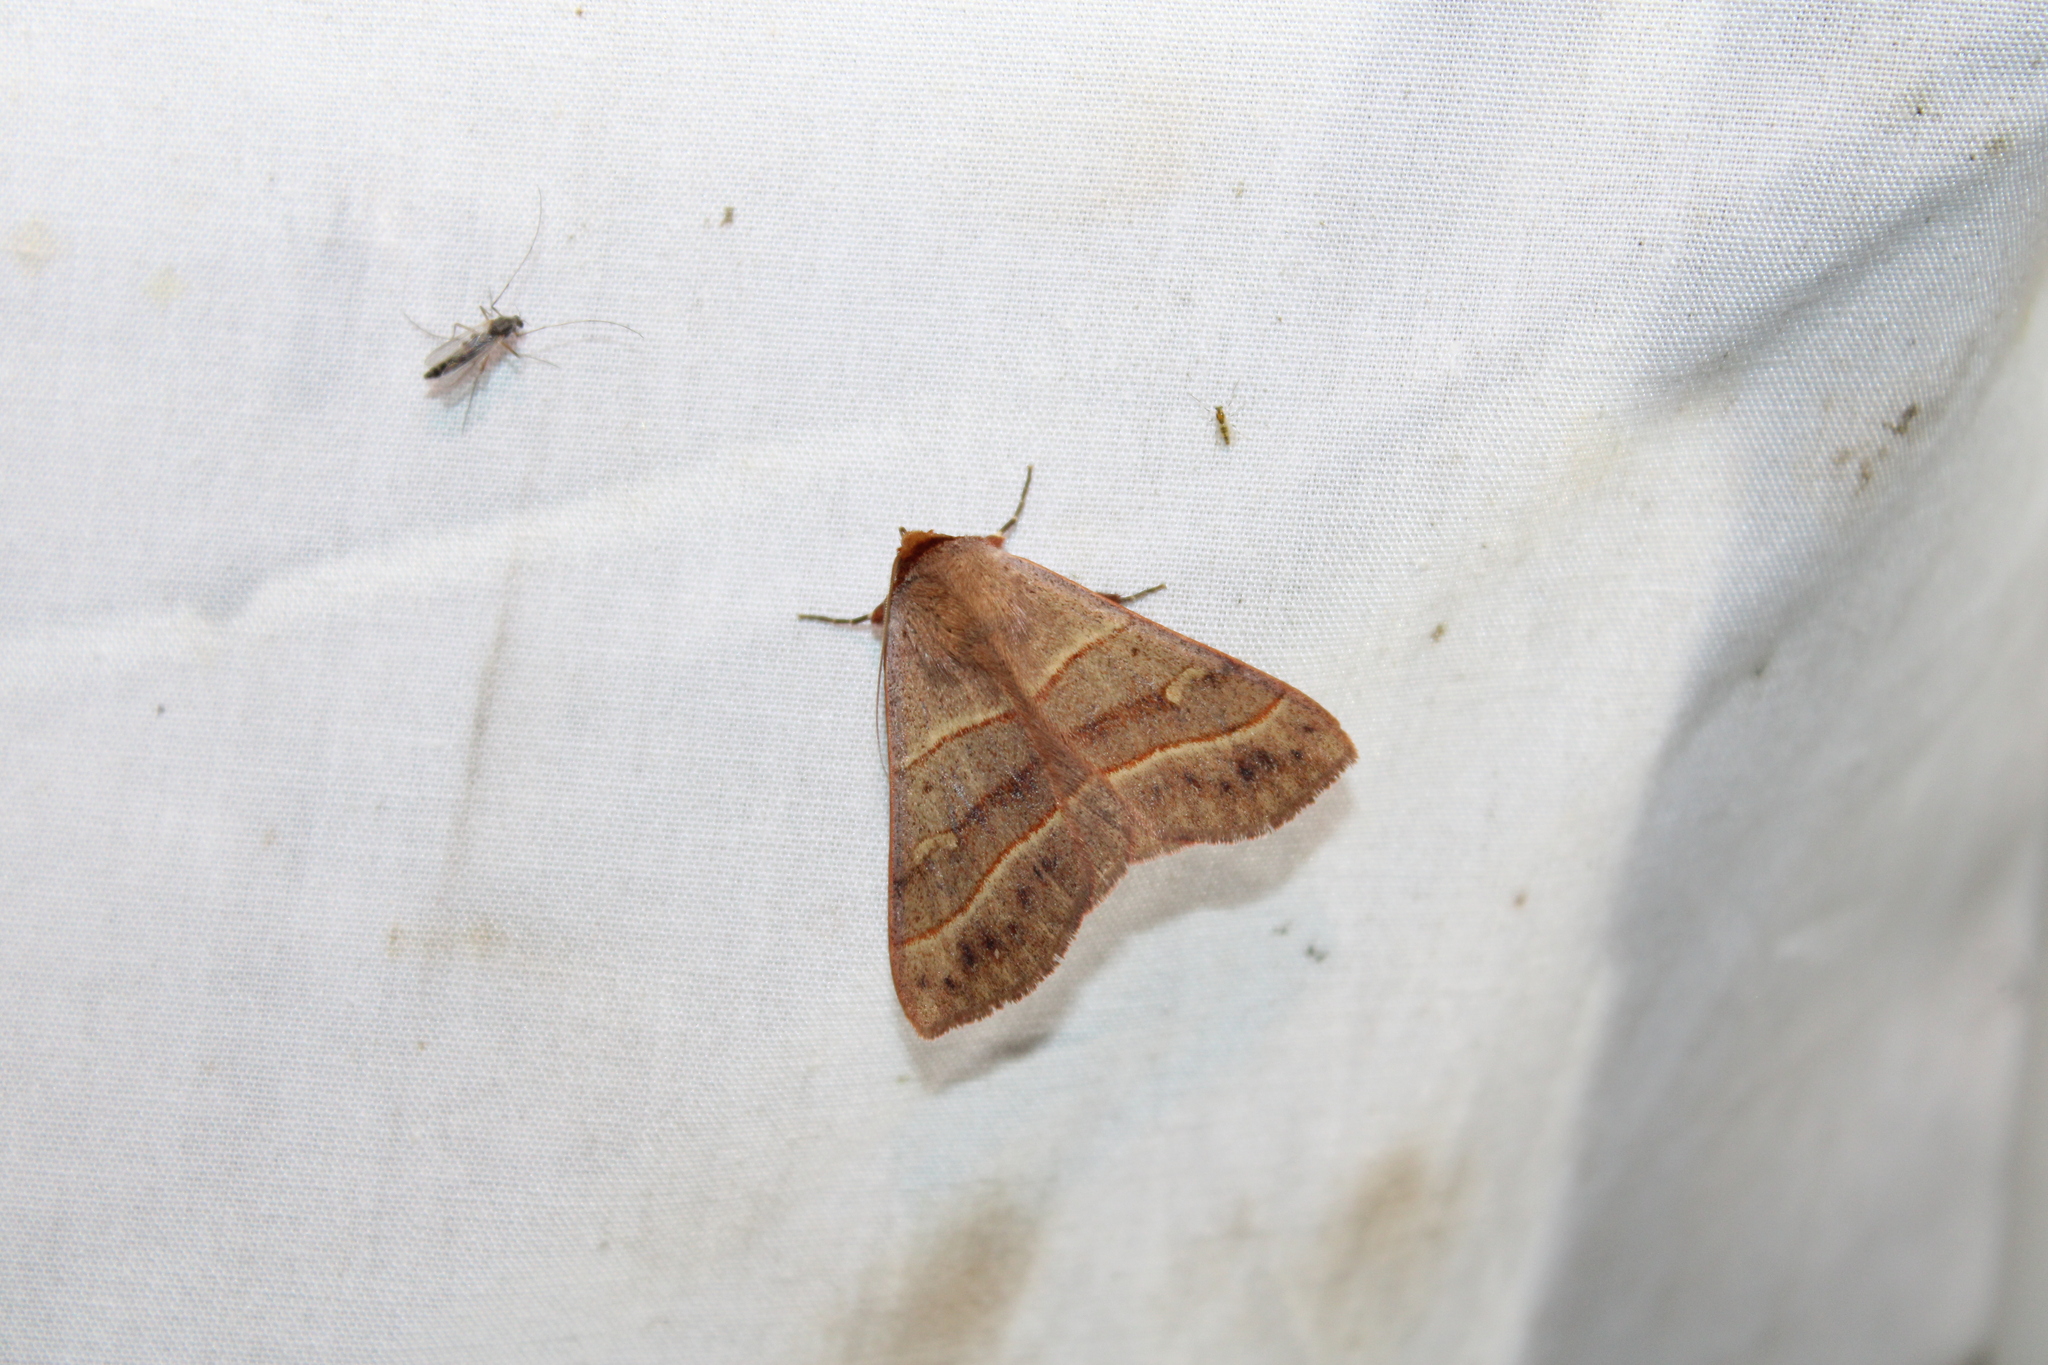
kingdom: Animalia
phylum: Arthropoda
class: Insecta
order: Lepidoptera
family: Erebidae
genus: Panopoda
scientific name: Panopoda rufimargo
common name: Red-lined panopoda moth
